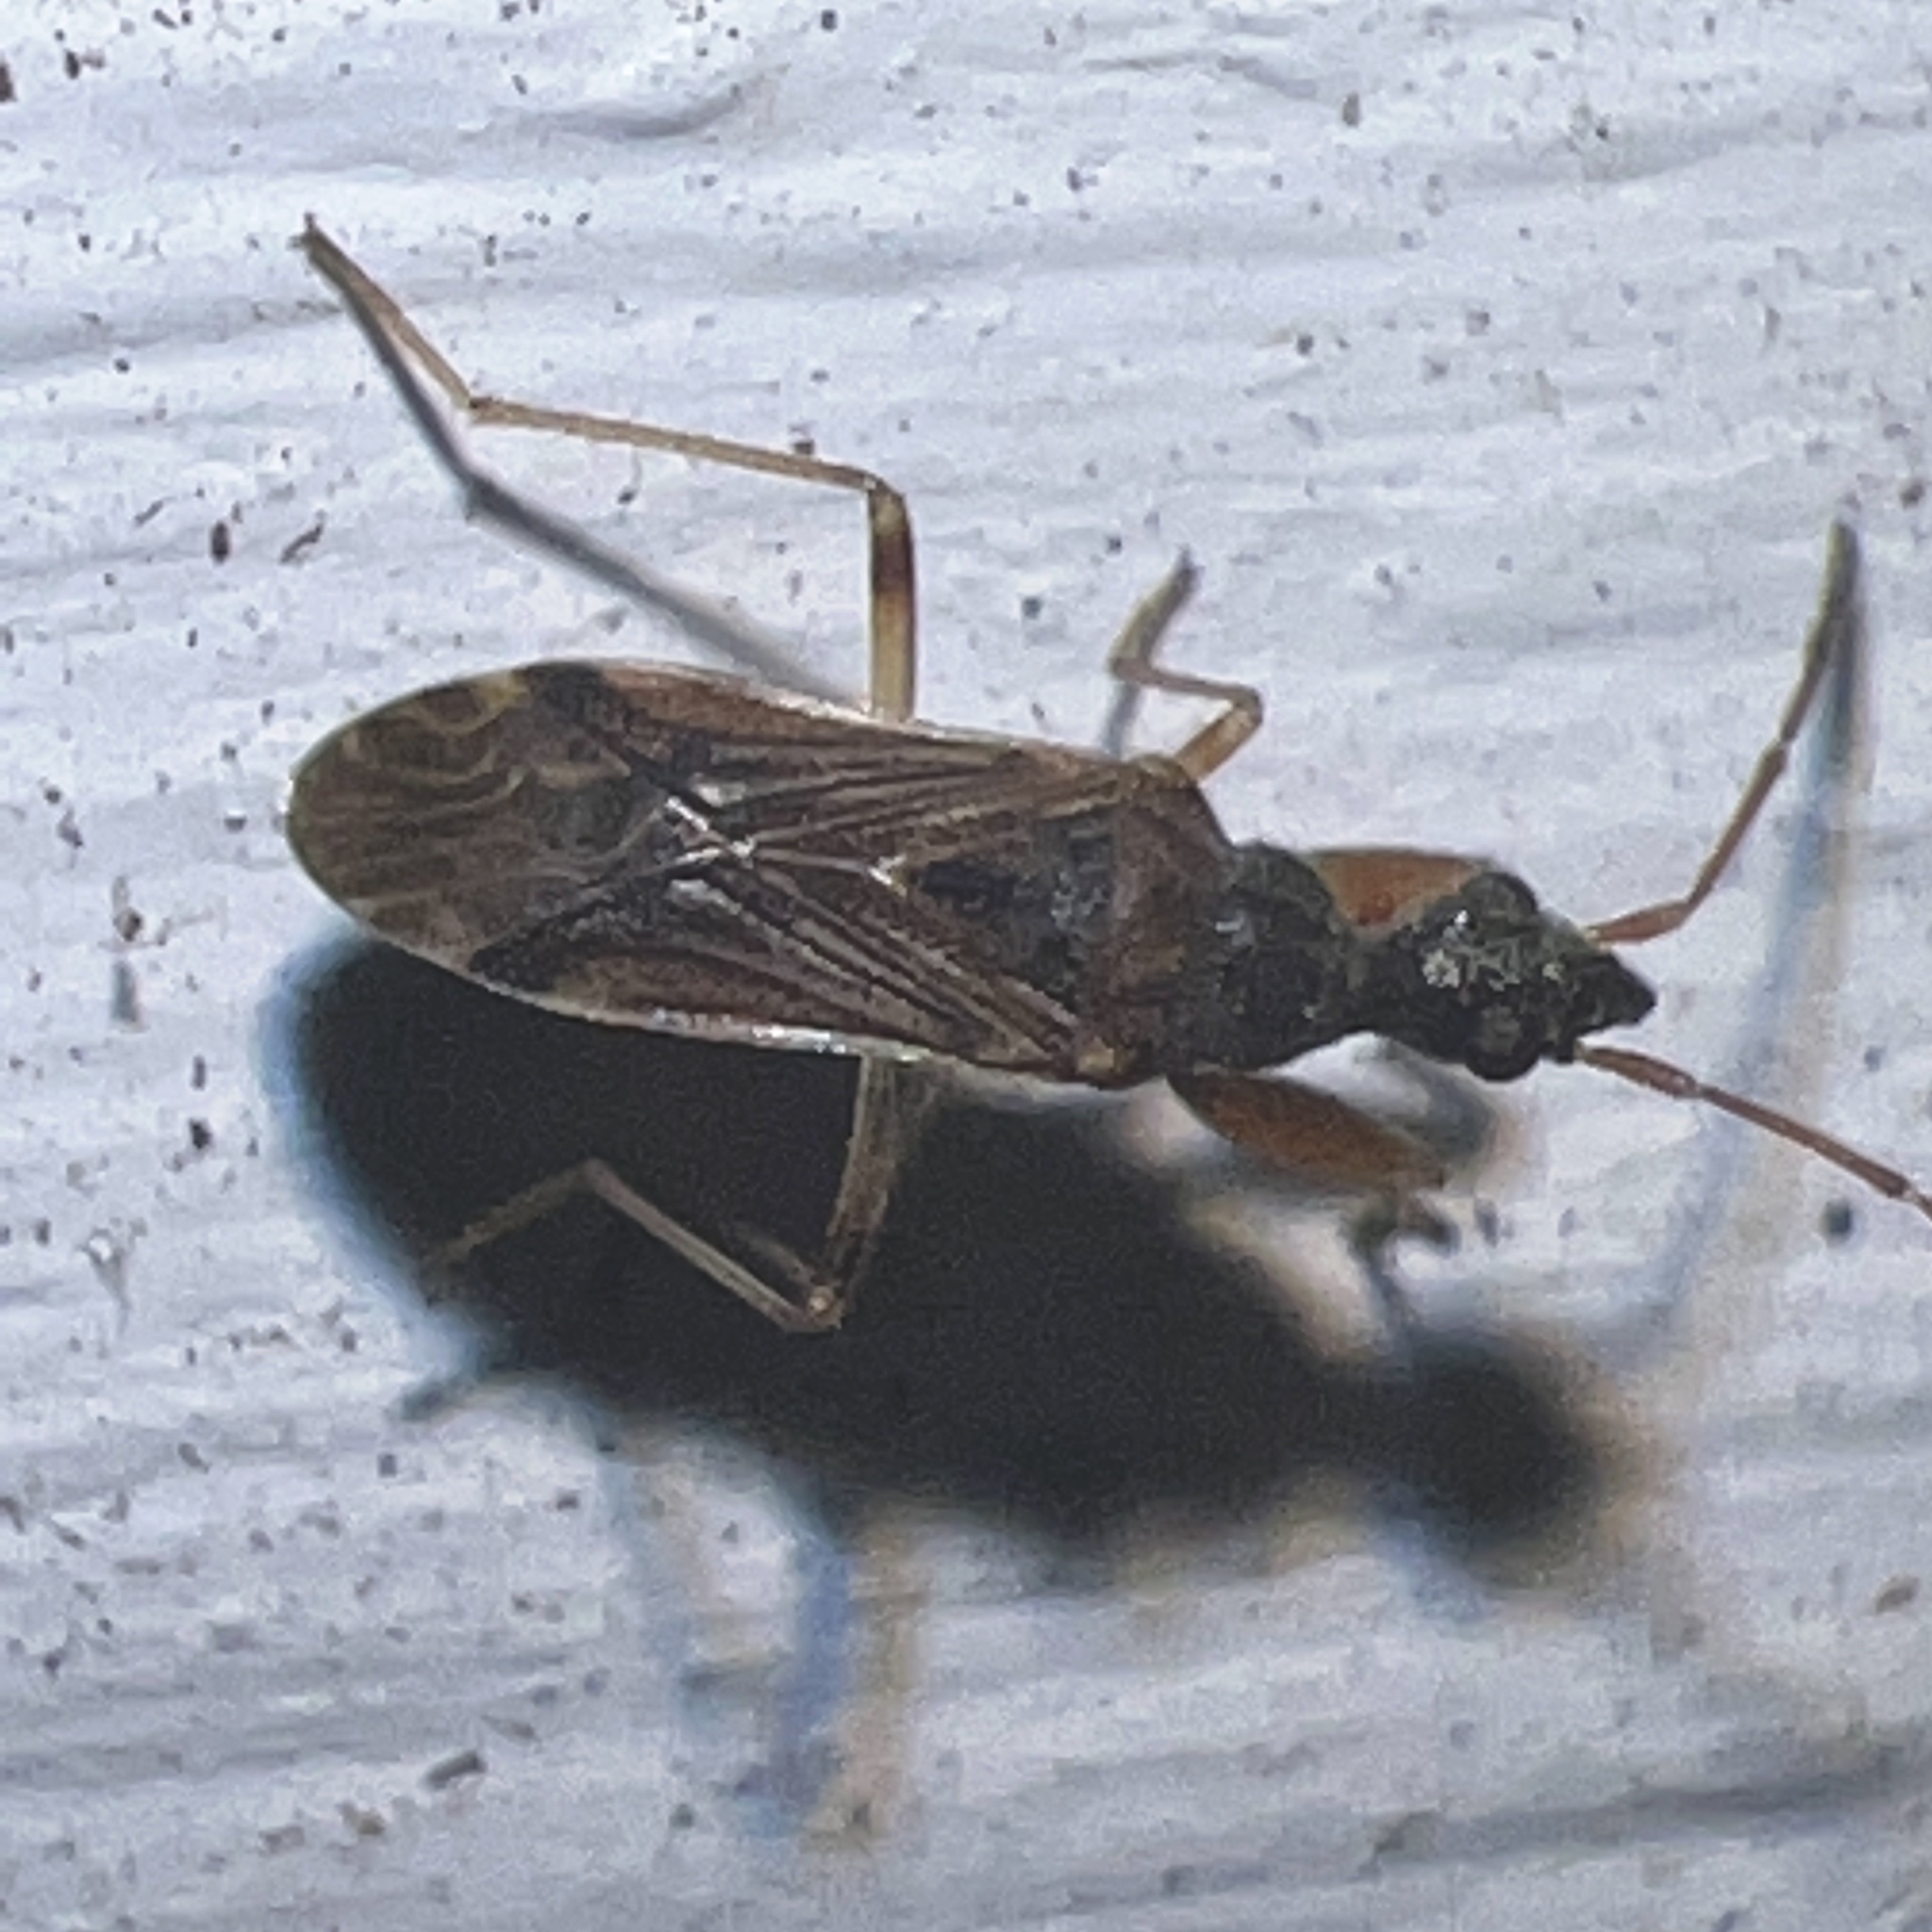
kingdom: Animalia
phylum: Arthropoda
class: Insecta
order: Hemiptera
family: Rhyparochromidae
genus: Heraeus
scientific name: Heraeus plebejus
